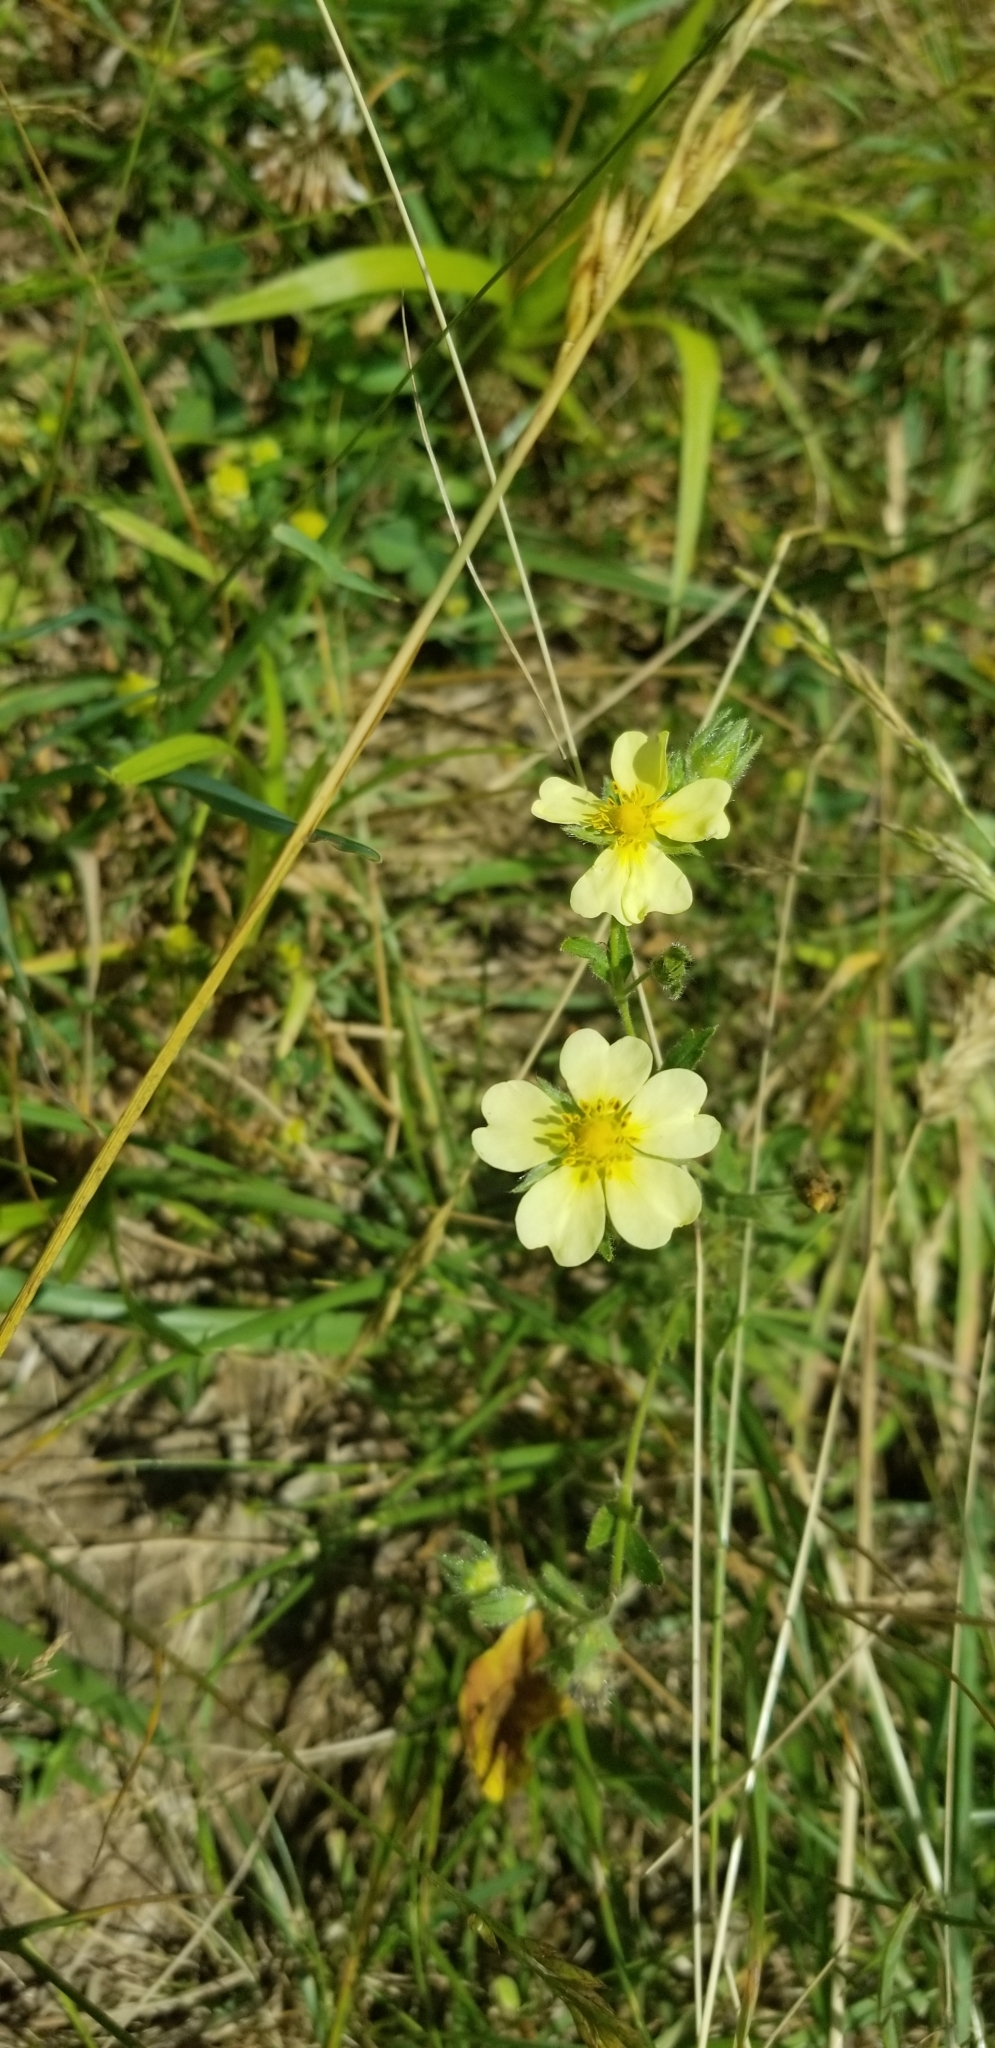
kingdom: Plantae
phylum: Tracheophyta
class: Magnoliopsida
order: Rosales
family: Rosaceae
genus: Potentilla
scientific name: Potentilla recta
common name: Sulphur cinquefoil
